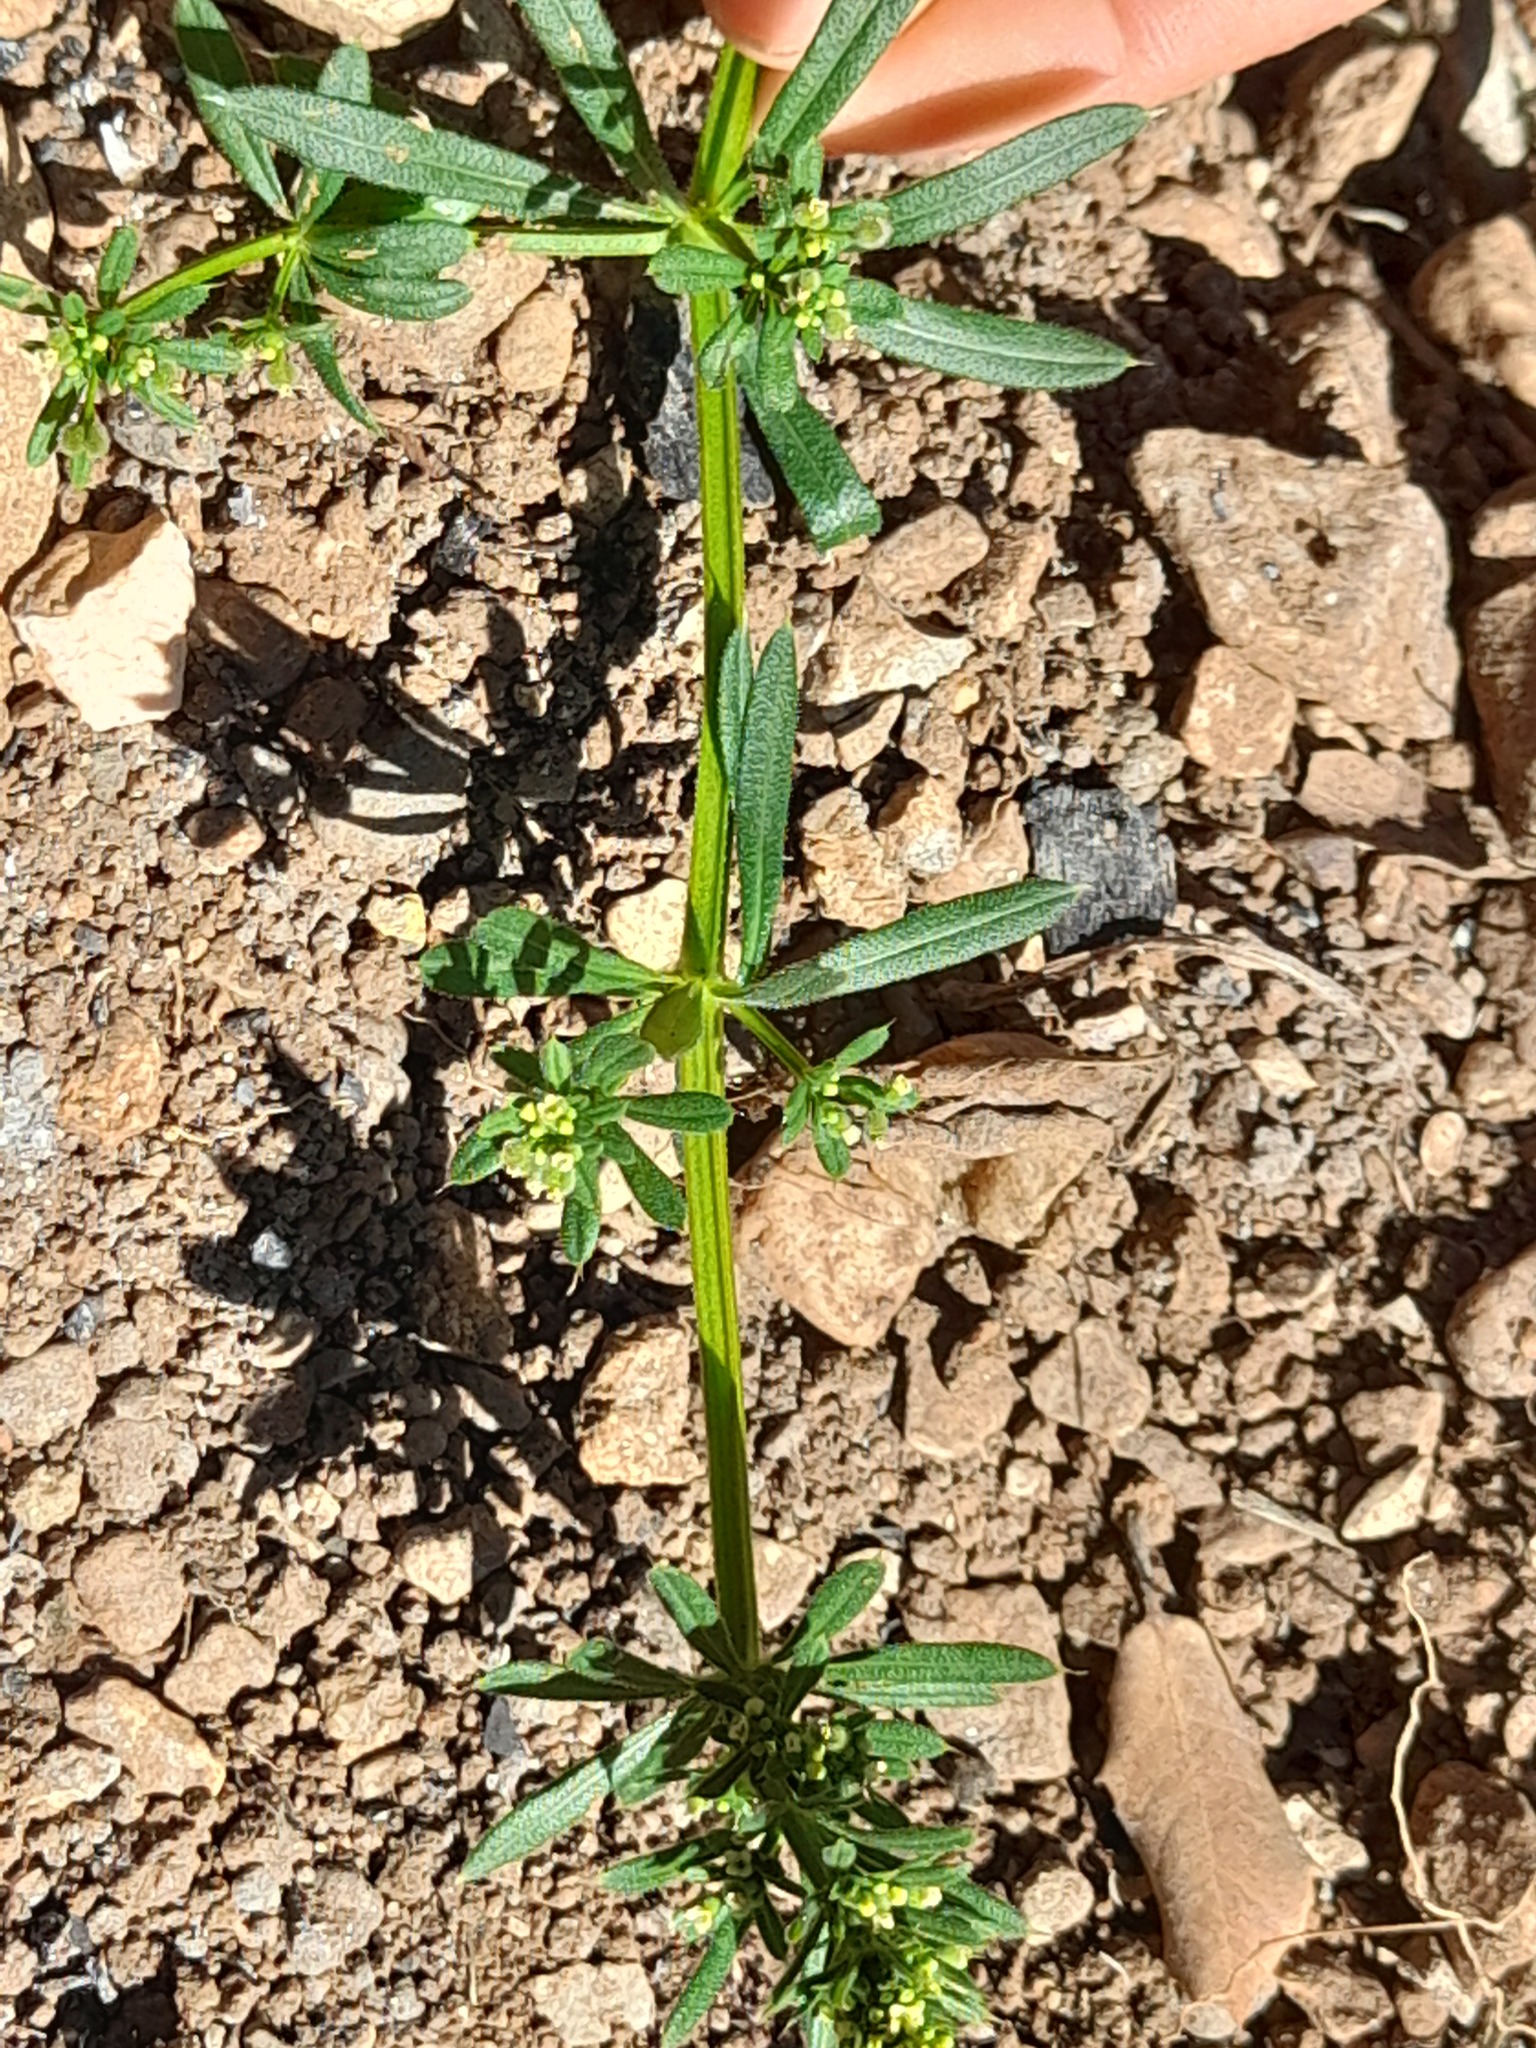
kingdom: Plantae
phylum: Tracheophyta
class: Magnoliopsida
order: Gentianales
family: Rubiaceae
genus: Galium
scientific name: Galium aparine
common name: Cleavers
